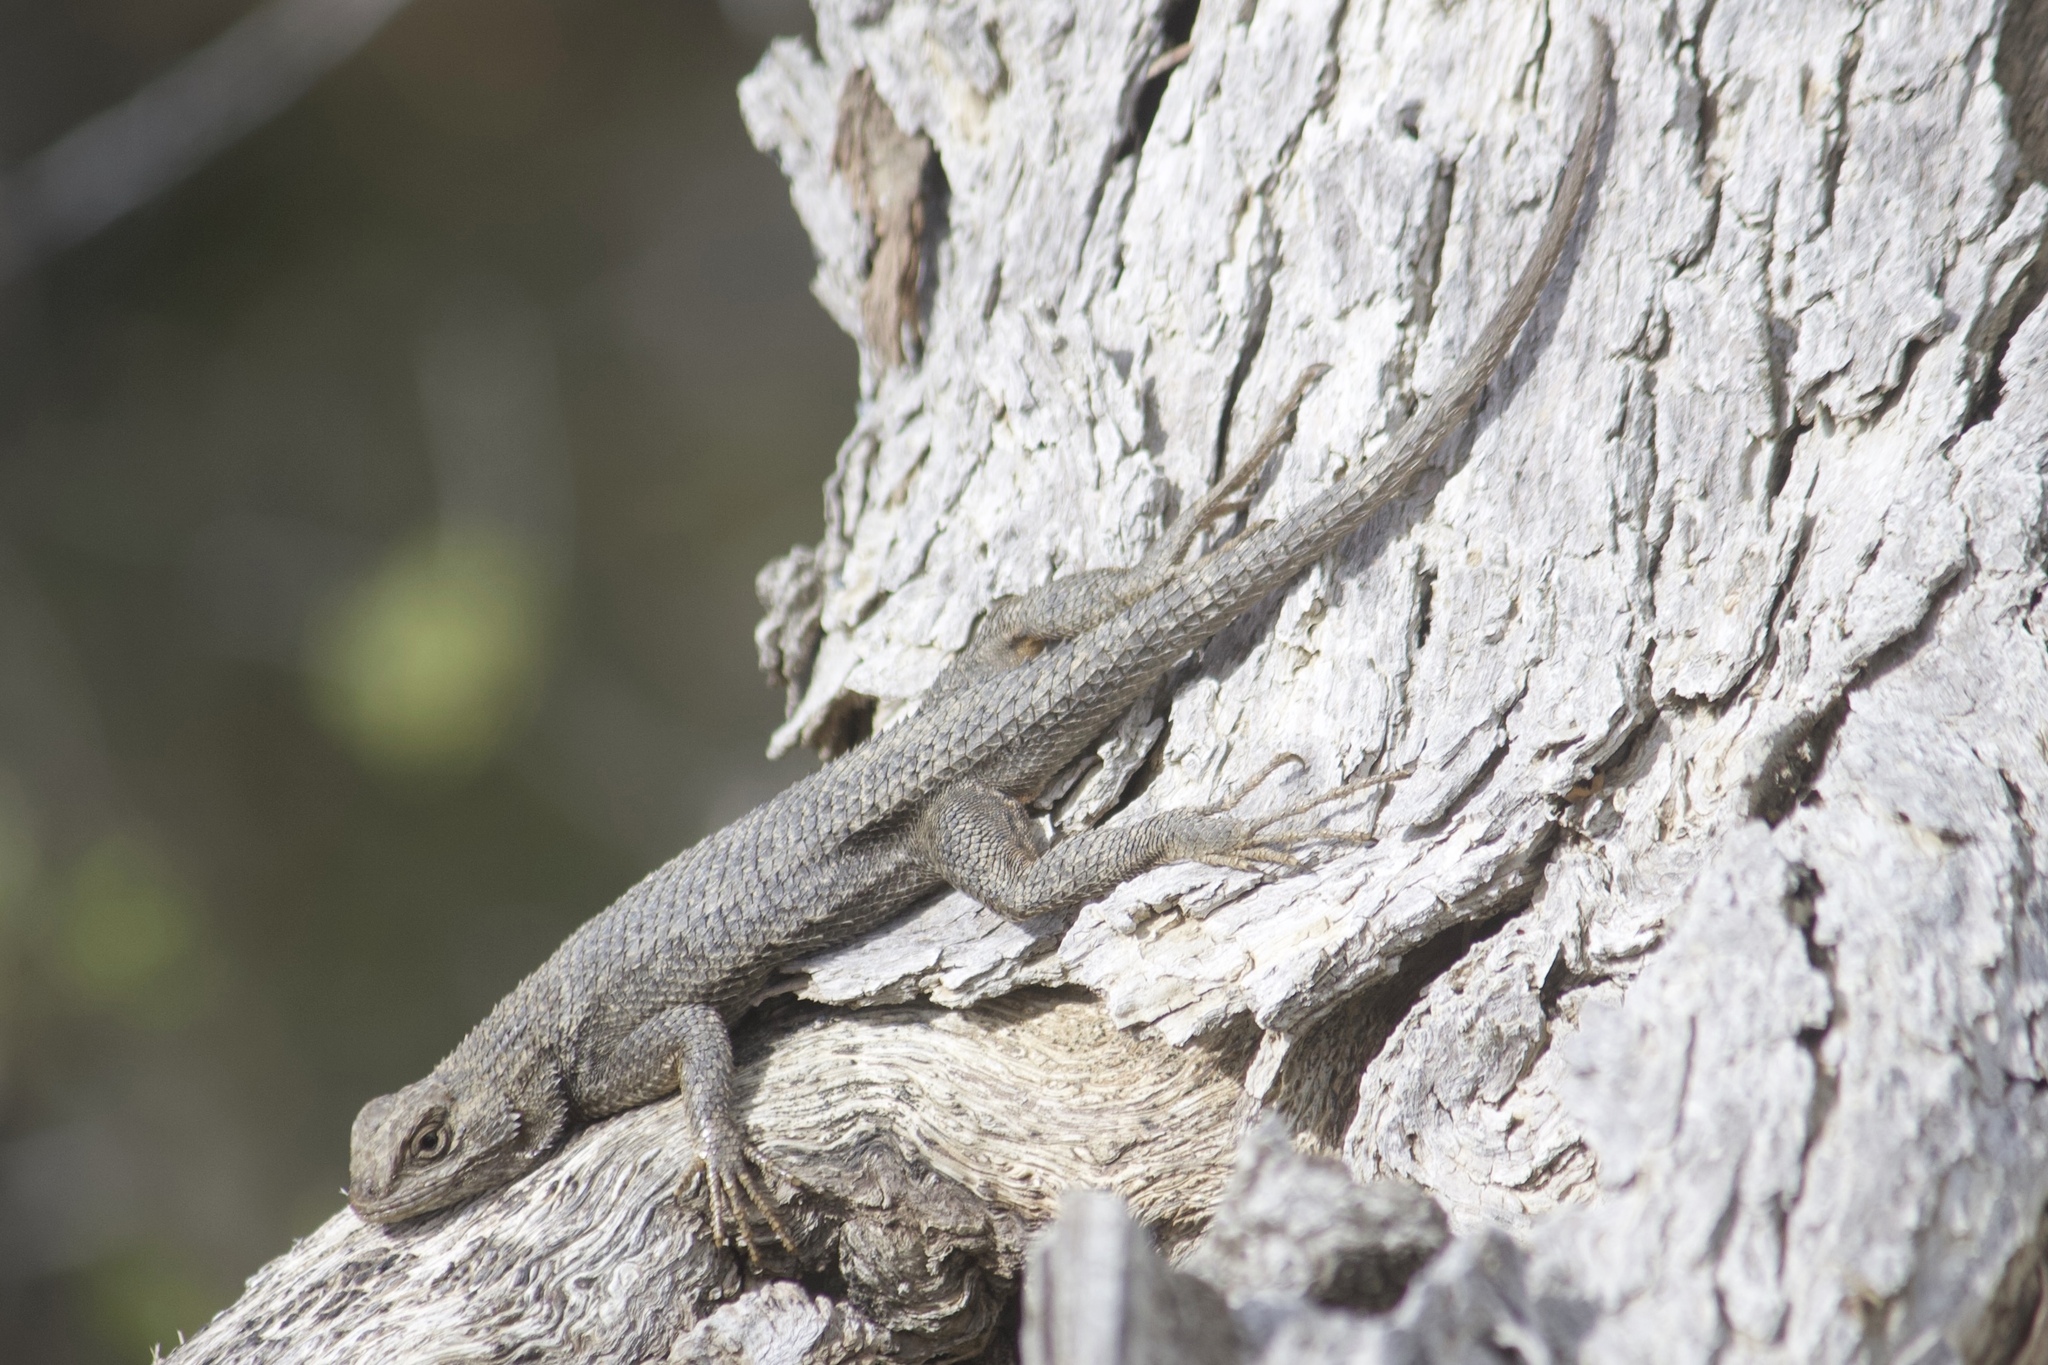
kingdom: Animalia
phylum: Chordata
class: Squamata
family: Phrynosomatidae
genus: Sceloporus
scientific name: Sceloporus occidentalis
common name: Western fence lizard
